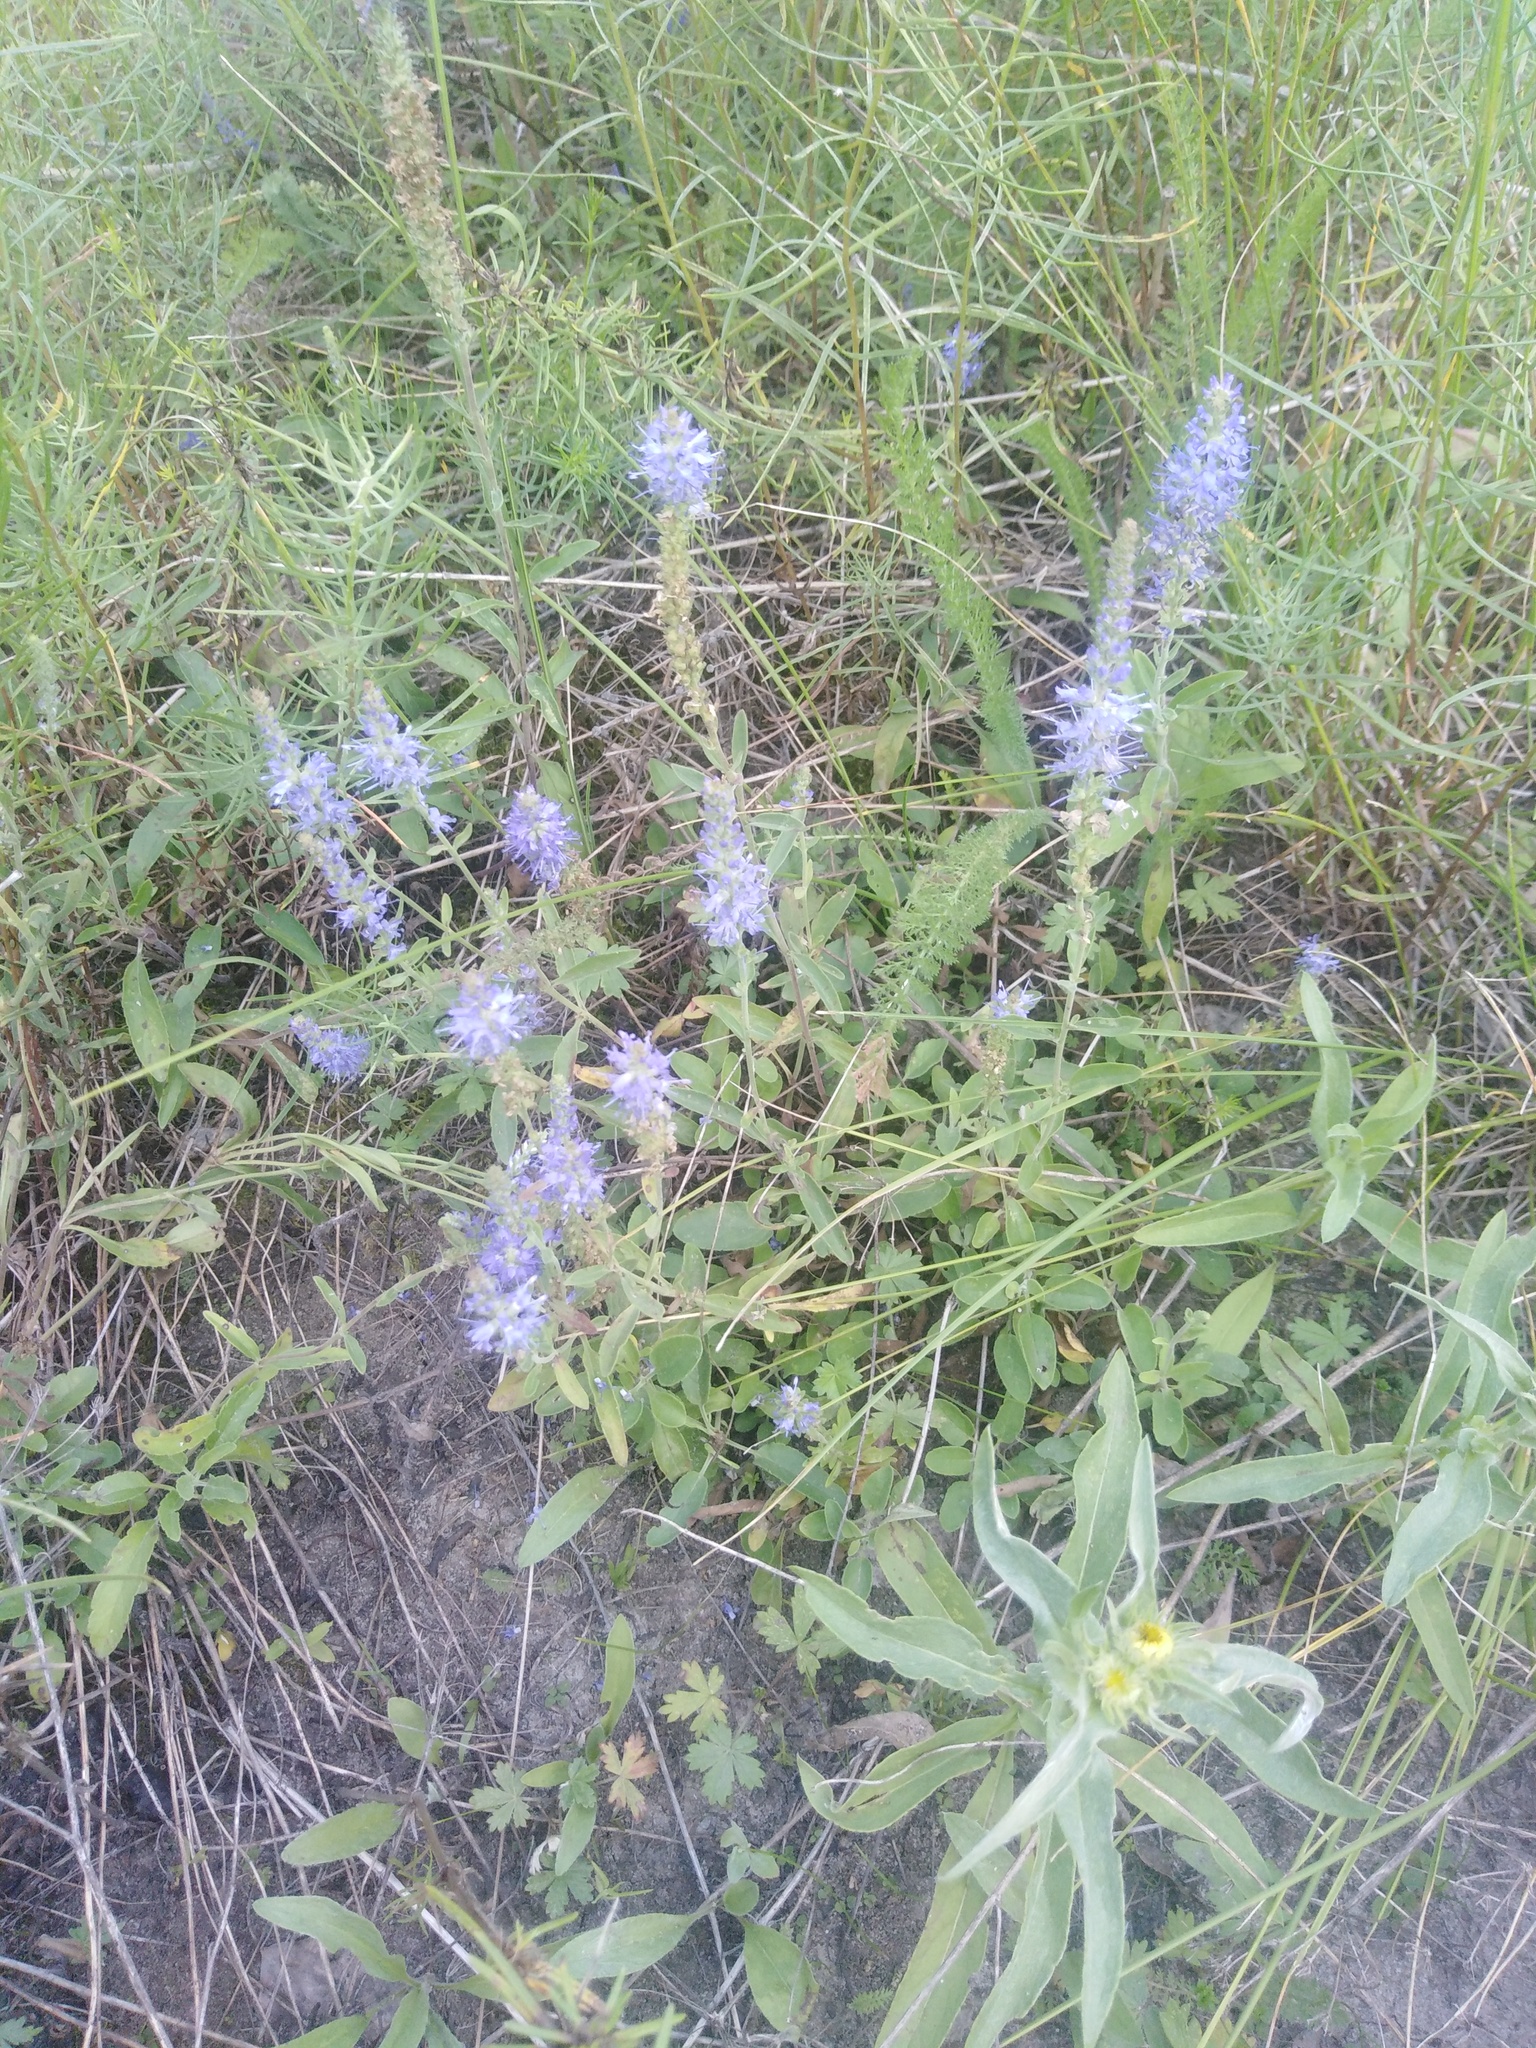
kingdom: Plantae
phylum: Tracheophyta
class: Magnoliopsida
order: Lamiales
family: Plantaginaceae
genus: Veronica
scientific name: Veronica spicata
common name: Spiked speedwell
